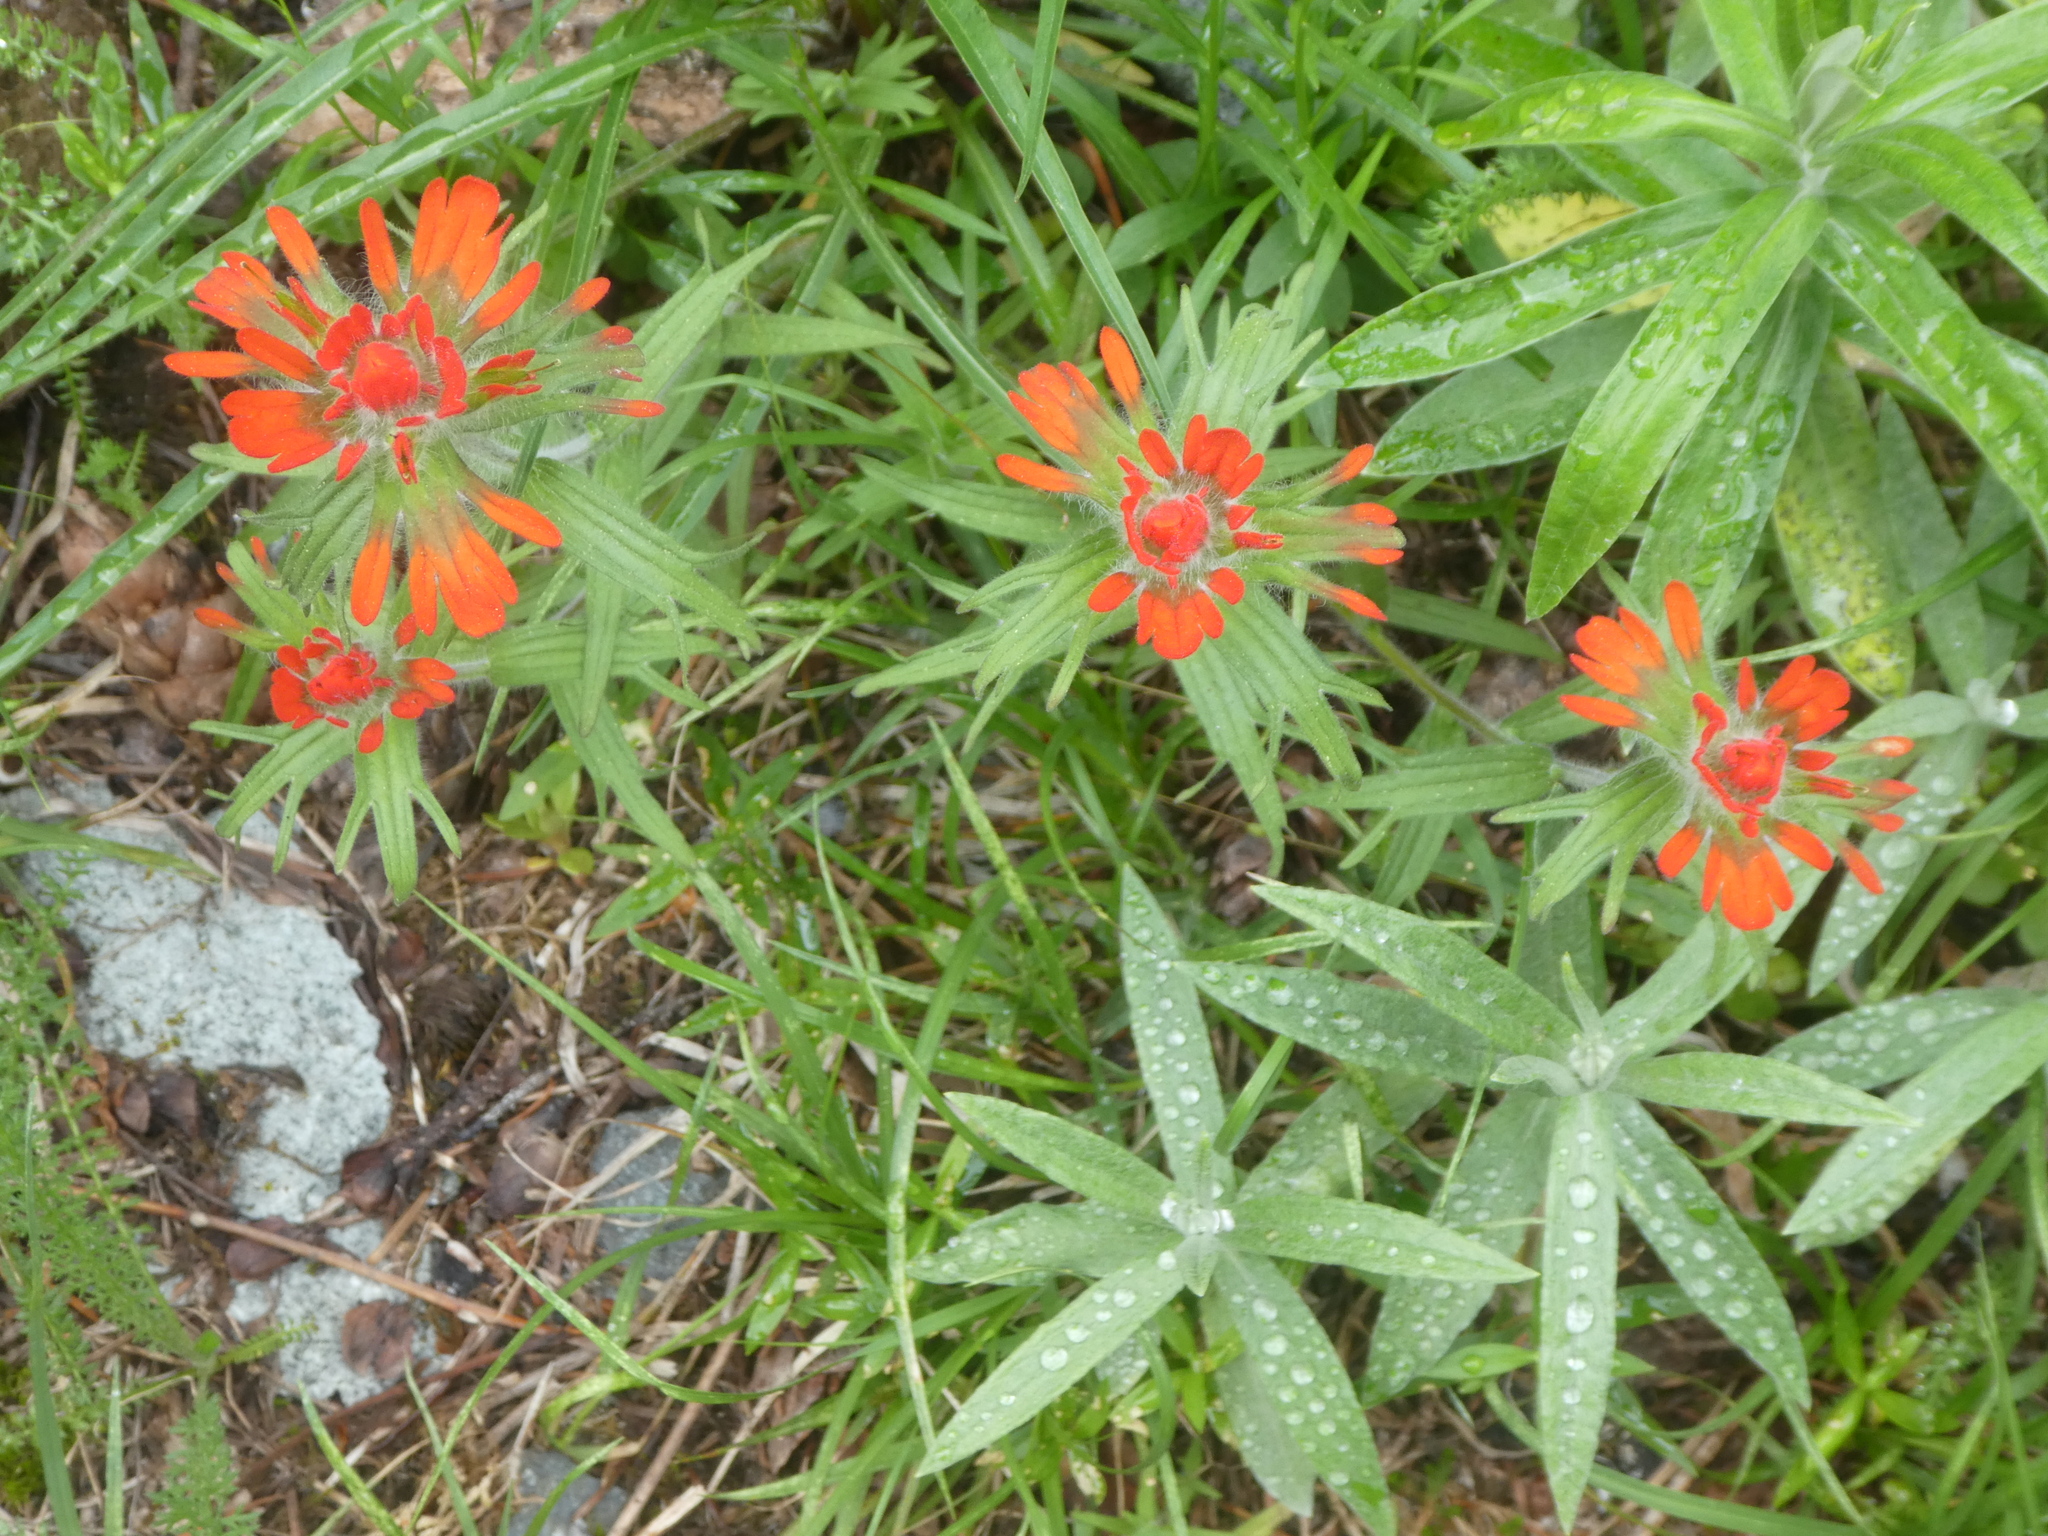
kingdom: Plantae
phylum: Tracheophyta
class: Magnoliopsida
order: Lamiales
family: Orobanchaceae
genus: Castilleja
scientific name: Castilleja hispida
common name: Bristly paintbrush
